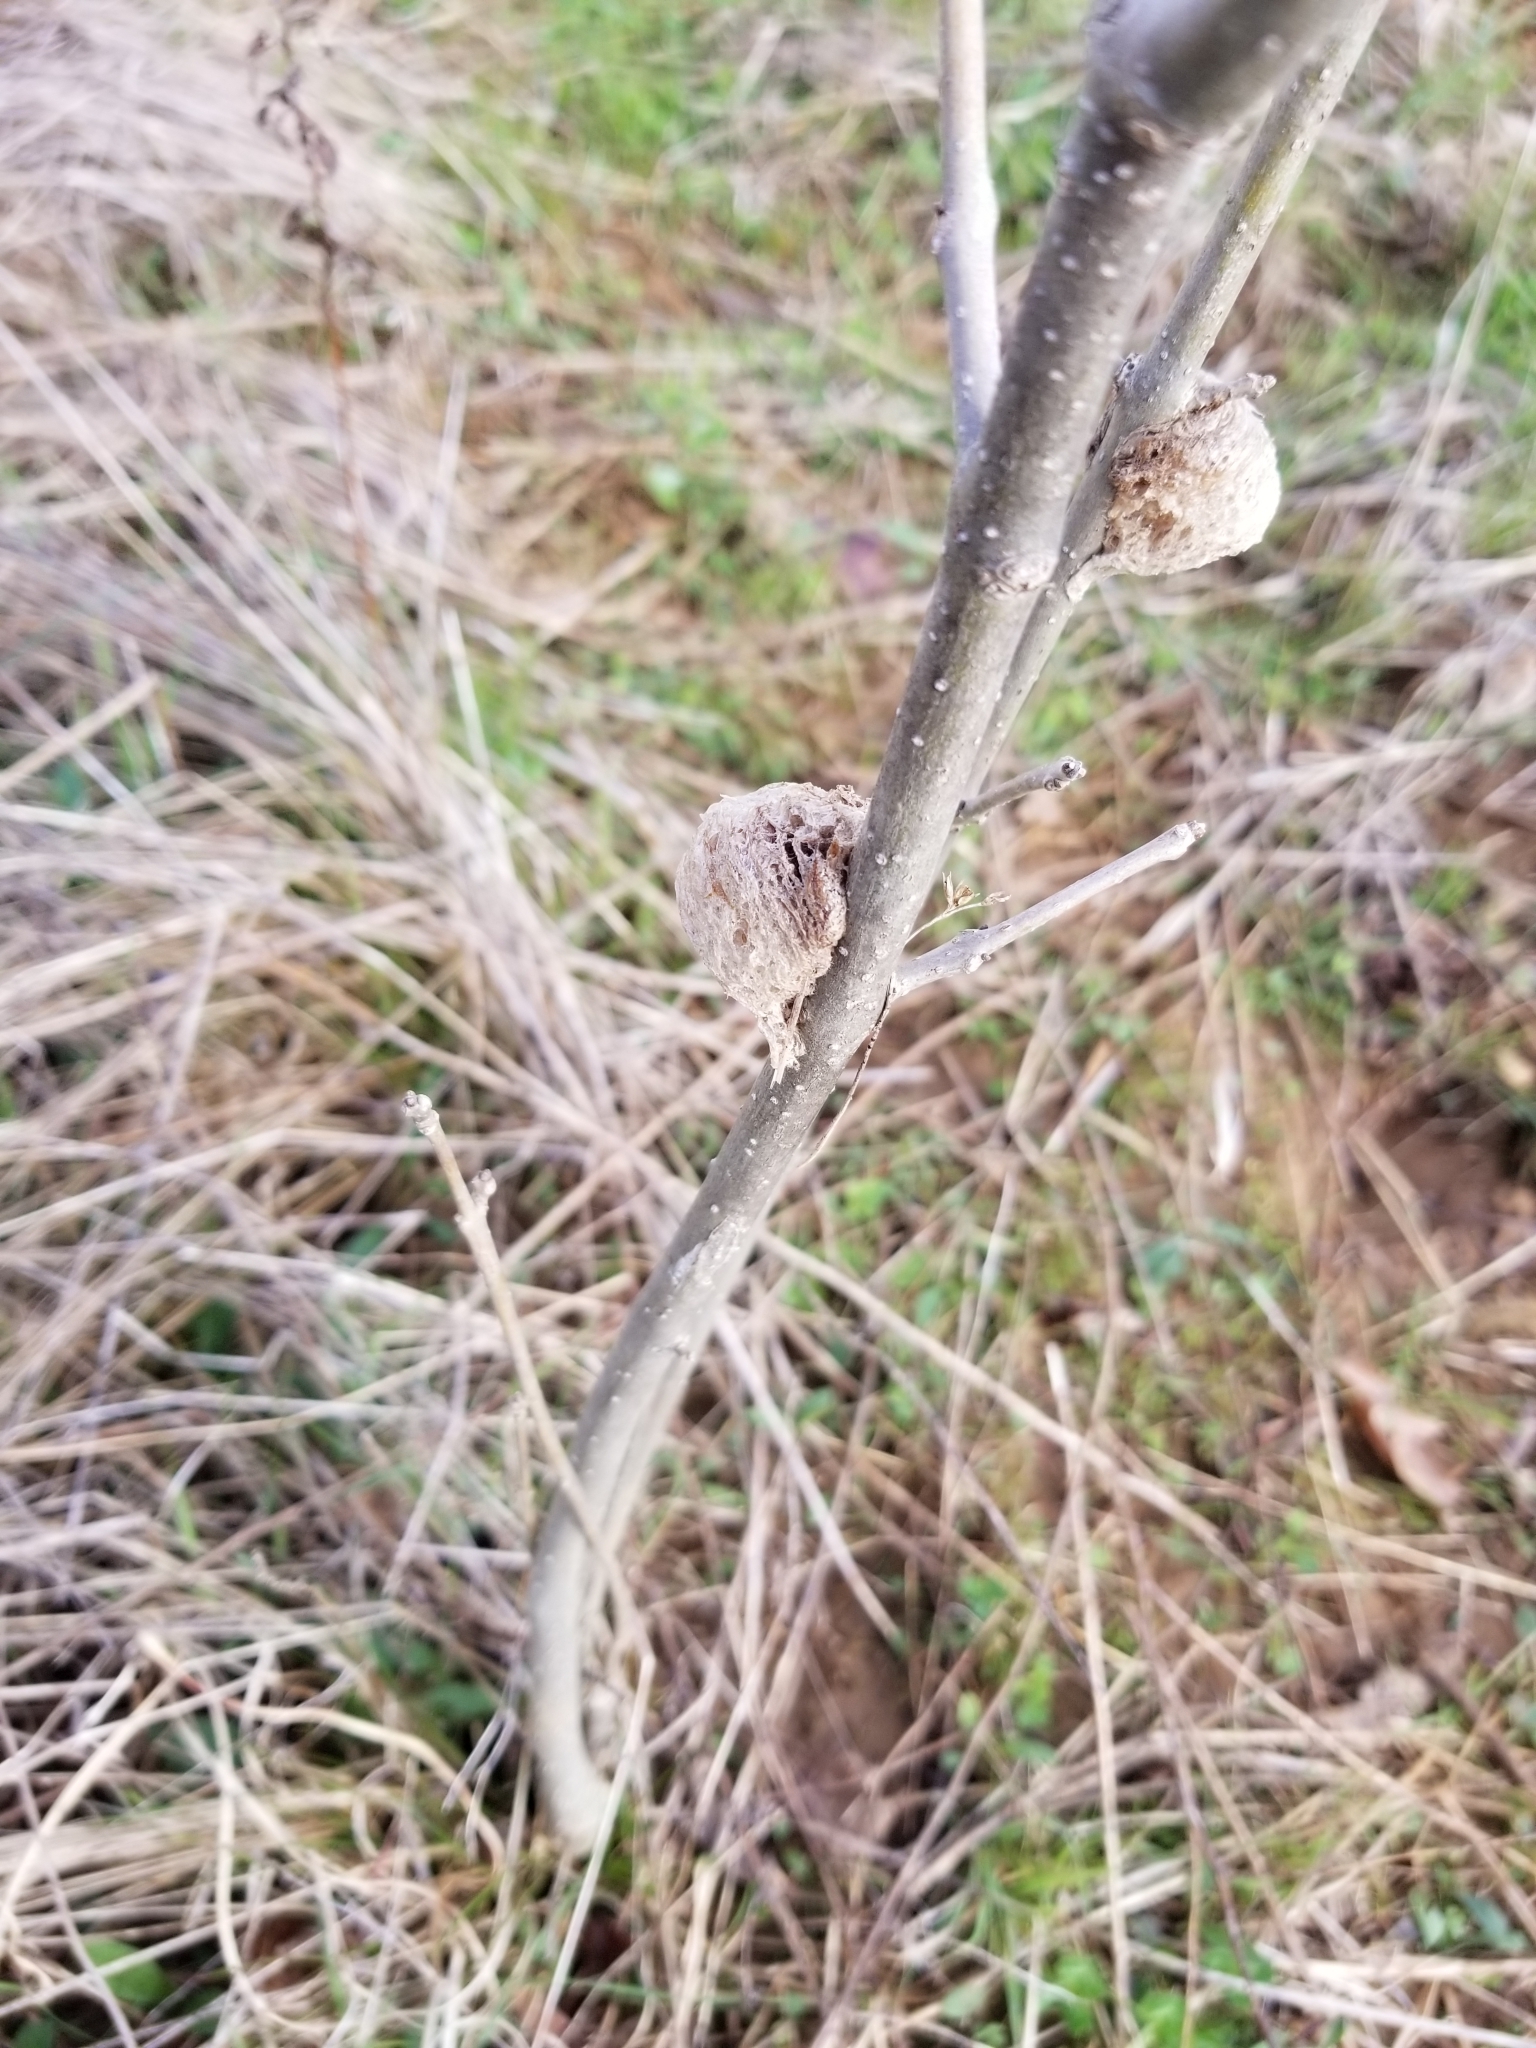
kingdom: Animalia
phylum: Arthropoda
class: Insecta
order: Mantodea
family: Mantidae
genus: Tenodera
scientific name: Tenodera sinensis
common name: Chinese mantis
